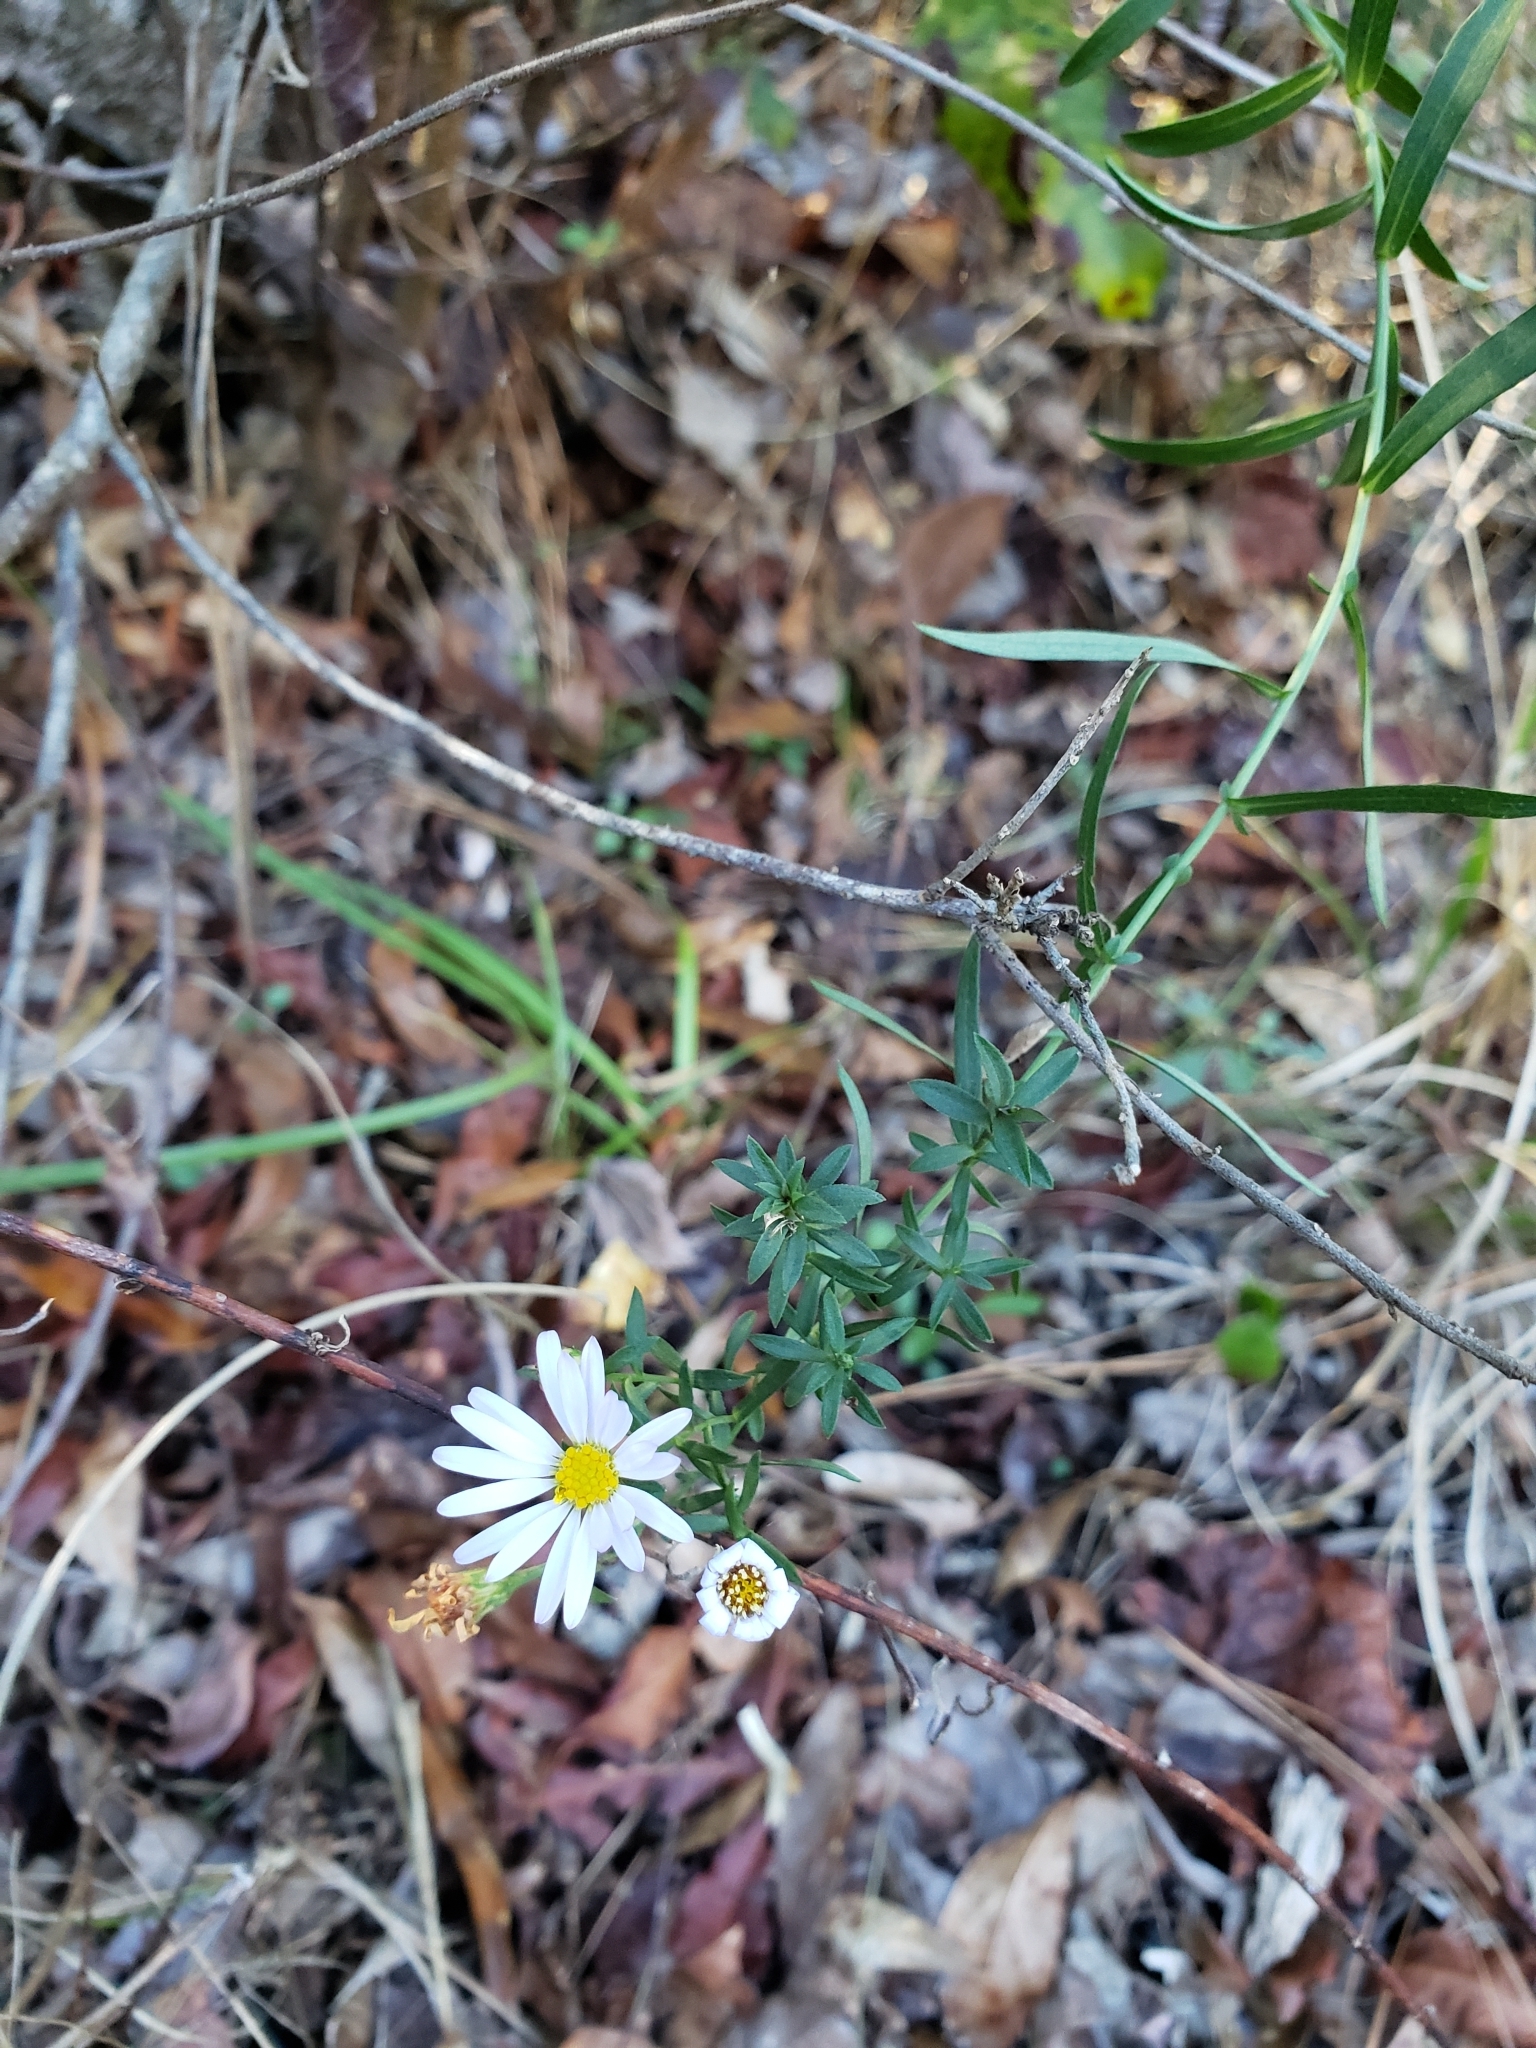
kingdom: Plantae
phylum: Tracheophyta
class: Magnoliopsida
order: Asterales
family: Asteraceae
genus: Symphyotrichum
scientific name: Symphyotrichum dumosum
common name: Bushy aster
